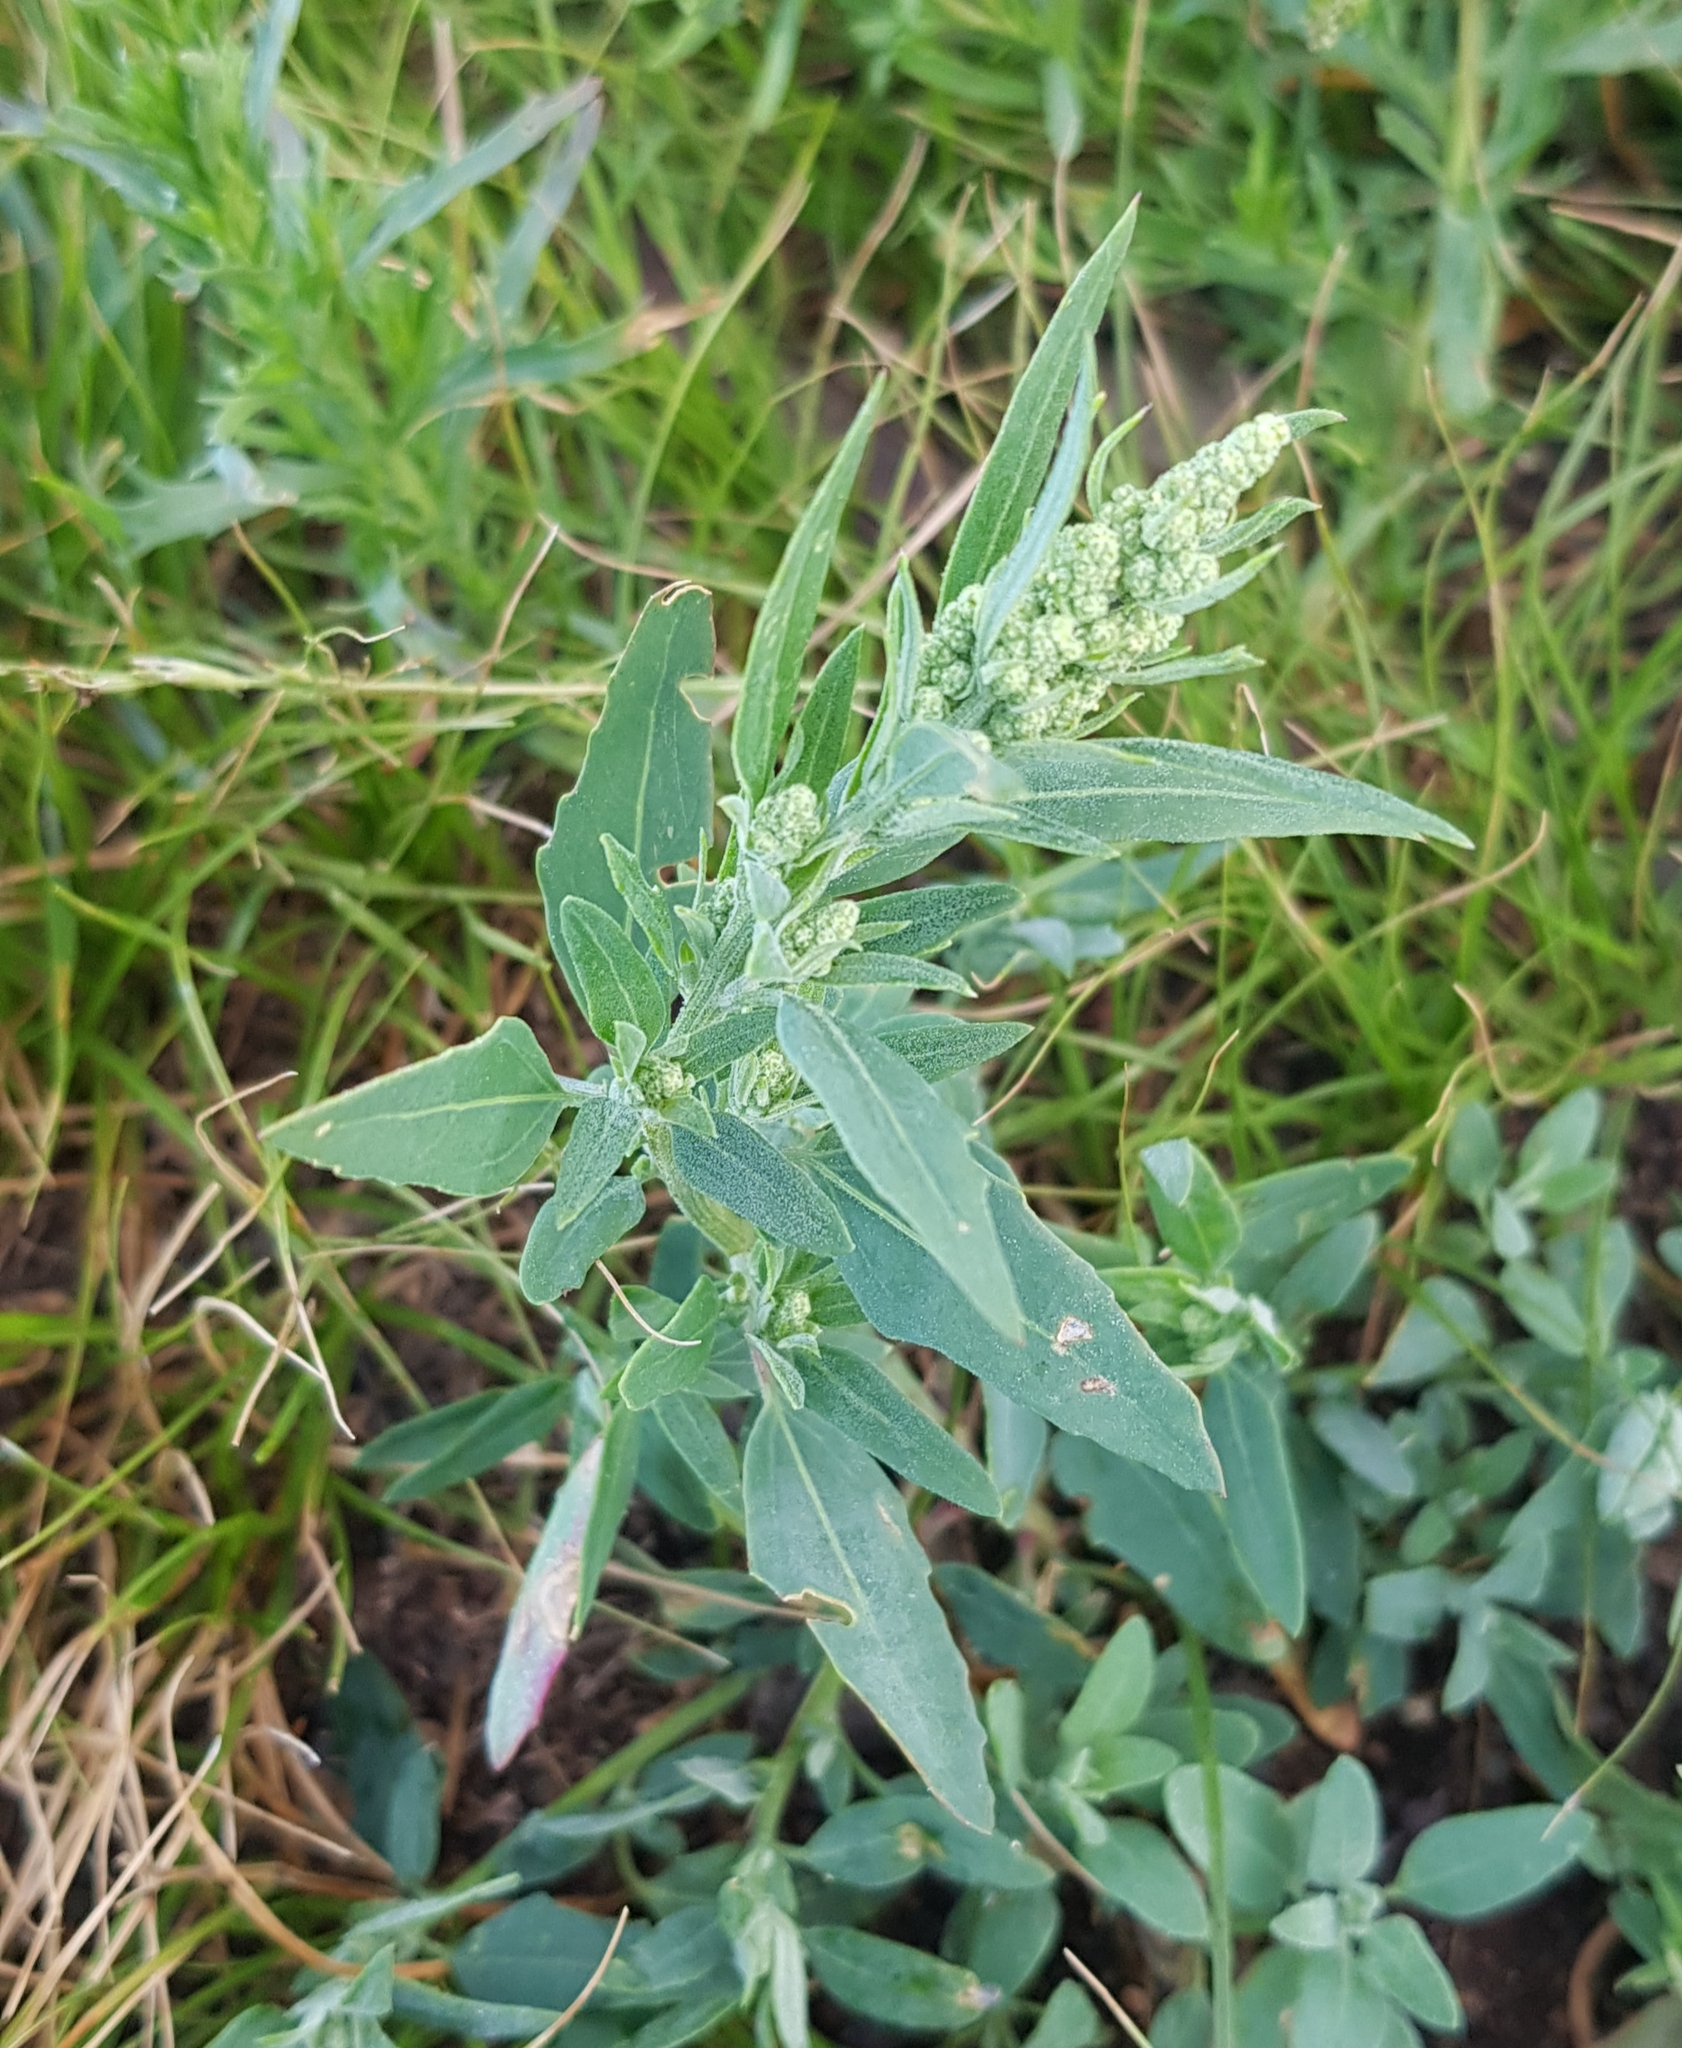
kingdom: Plantae
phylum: Tracheophyta
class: Magnoliopsida
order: Caryophyllales
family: Amaranthaceae
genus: Chenopodium
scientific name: Chenopodium album
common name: Fat-hen
